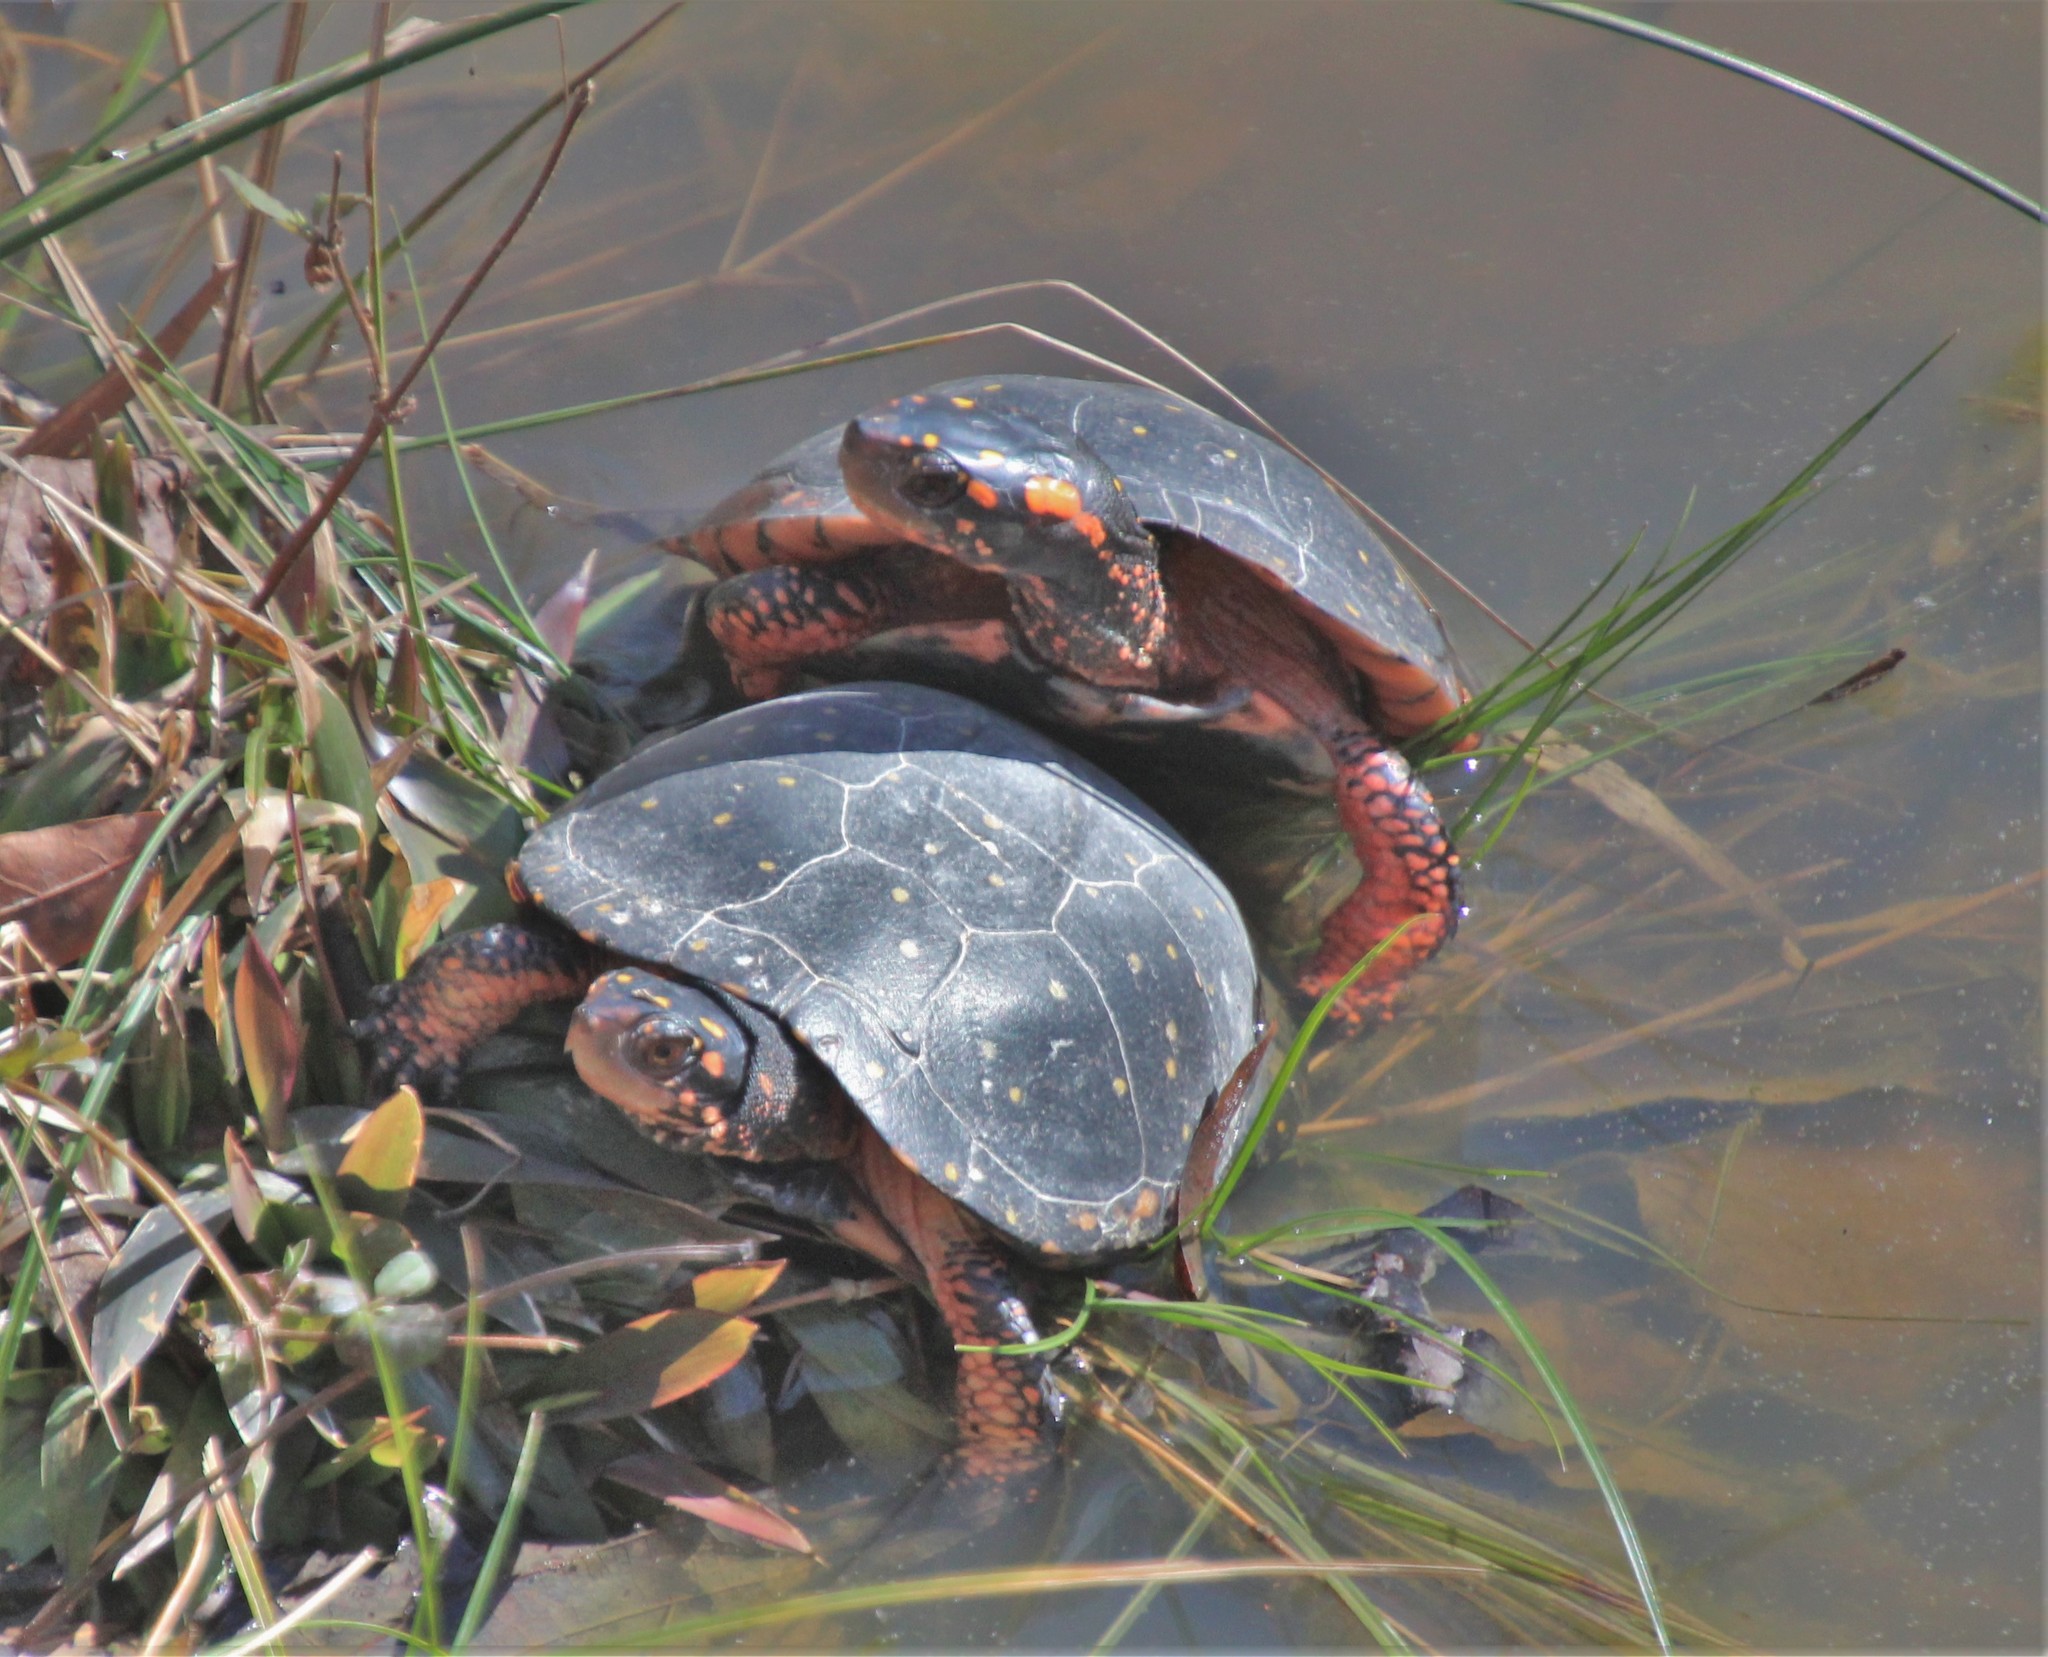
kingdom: Animalia
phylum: Chordata
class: Testudines
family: Emydidae
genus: Clemmys
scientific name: Clemmys guttata
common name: Spotted turtle
